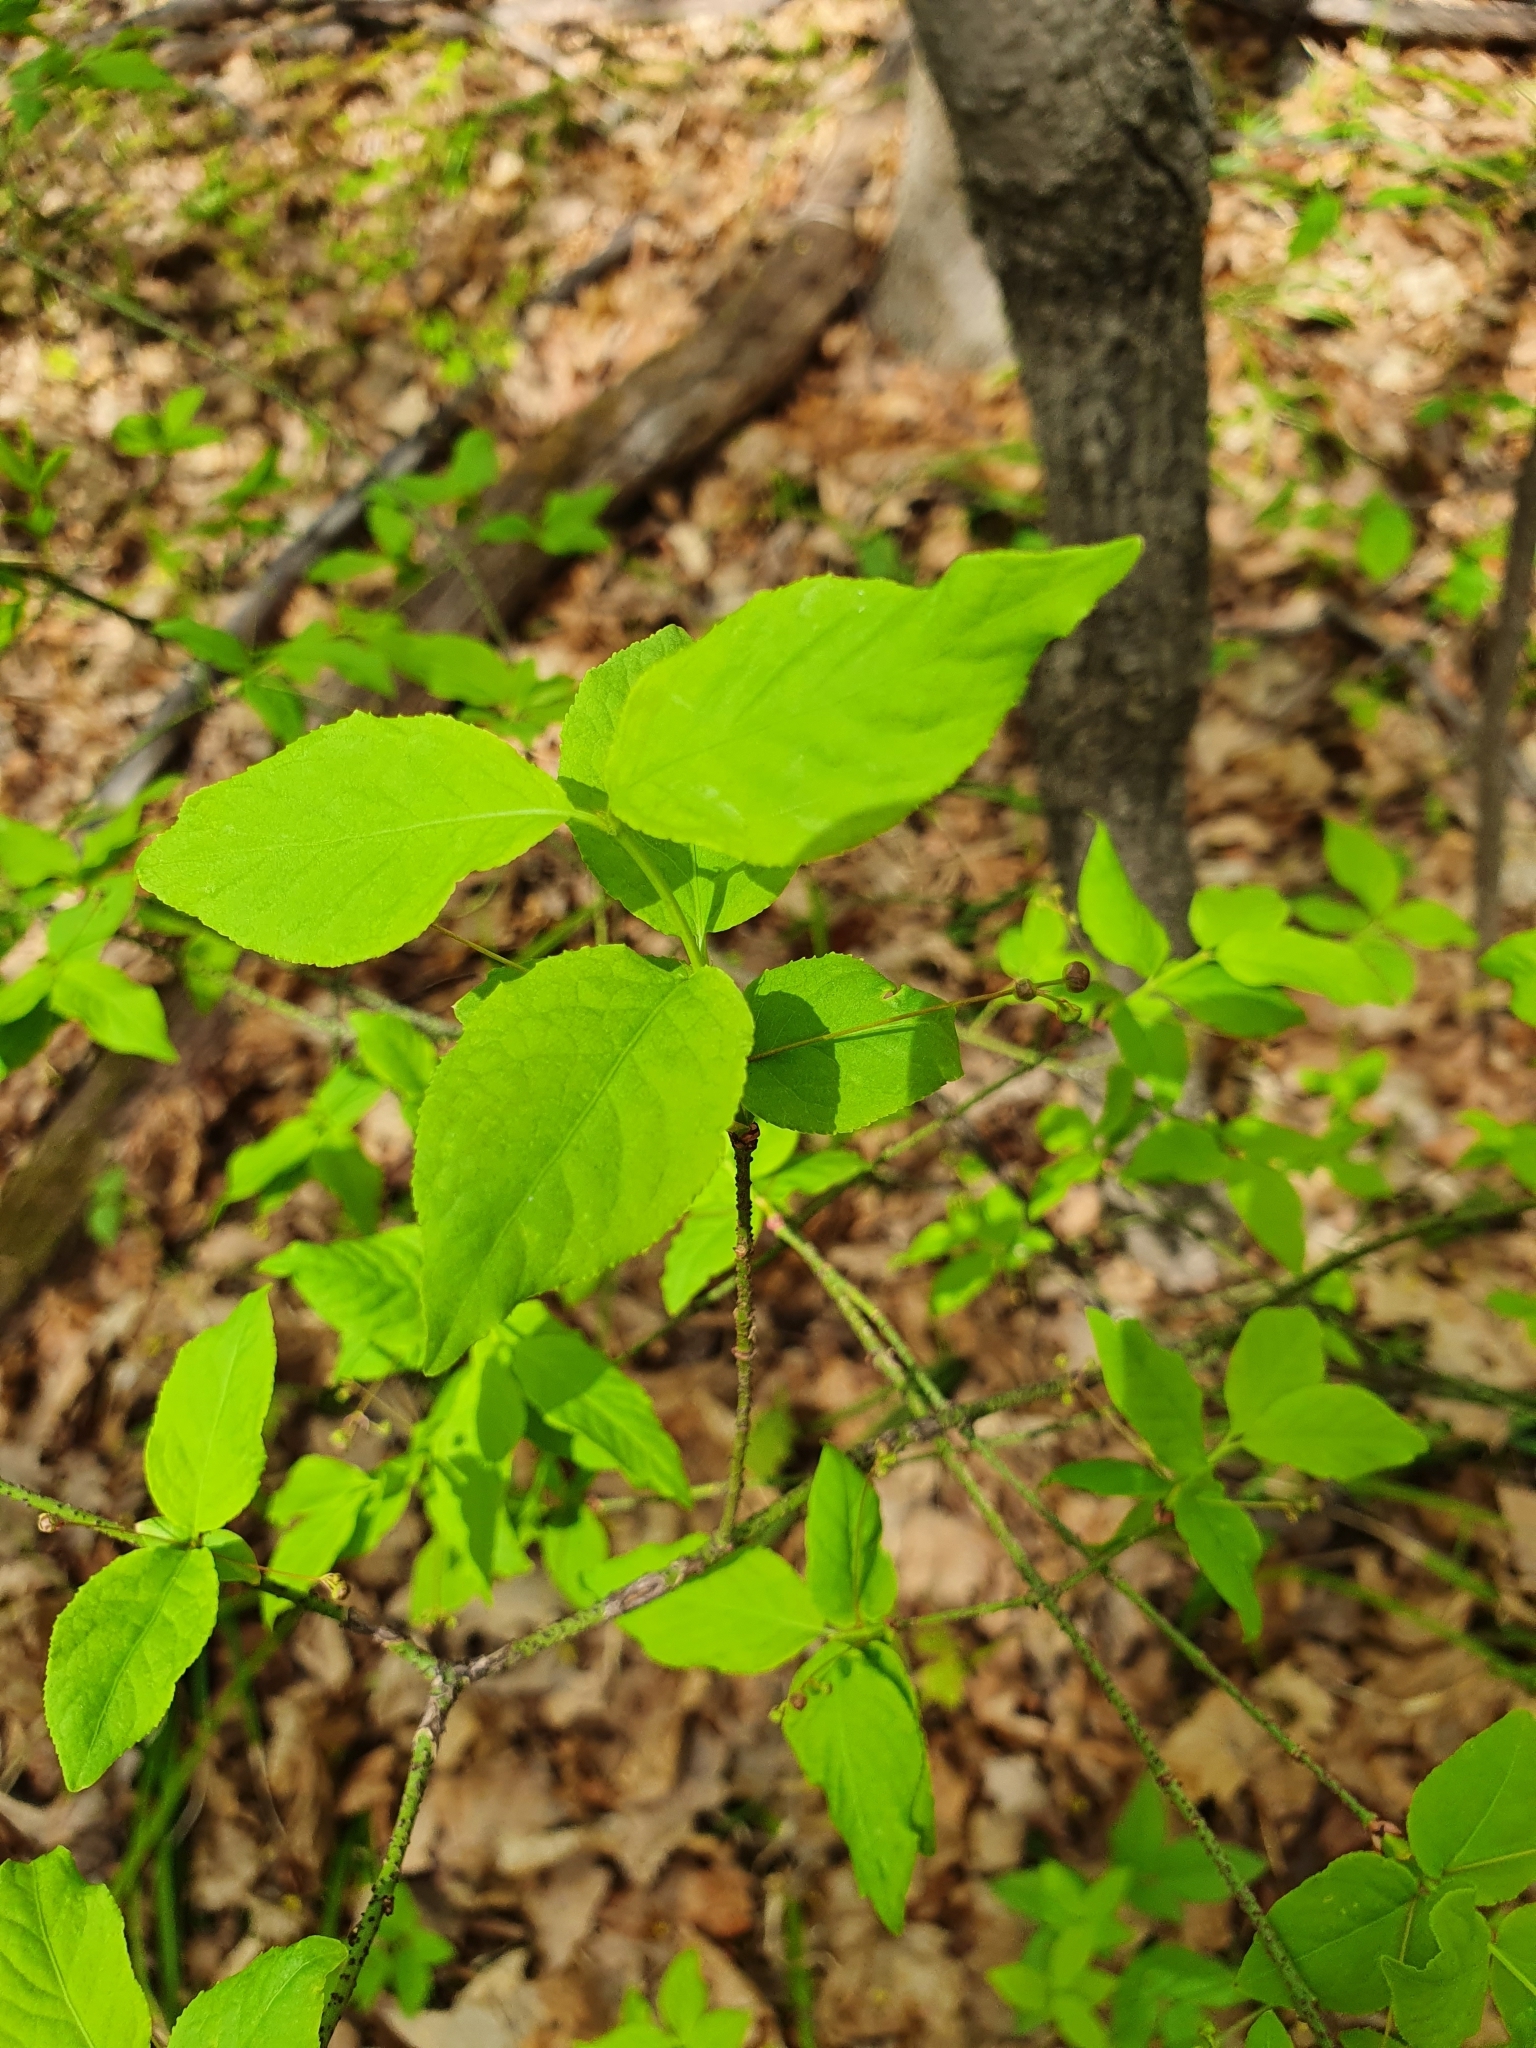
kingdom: Plantae
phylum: Tracheophyta
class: Magnoliopsida
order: Celastrales
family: Celastraceae
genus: Euonymus
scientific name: Euonymus verrucosus
